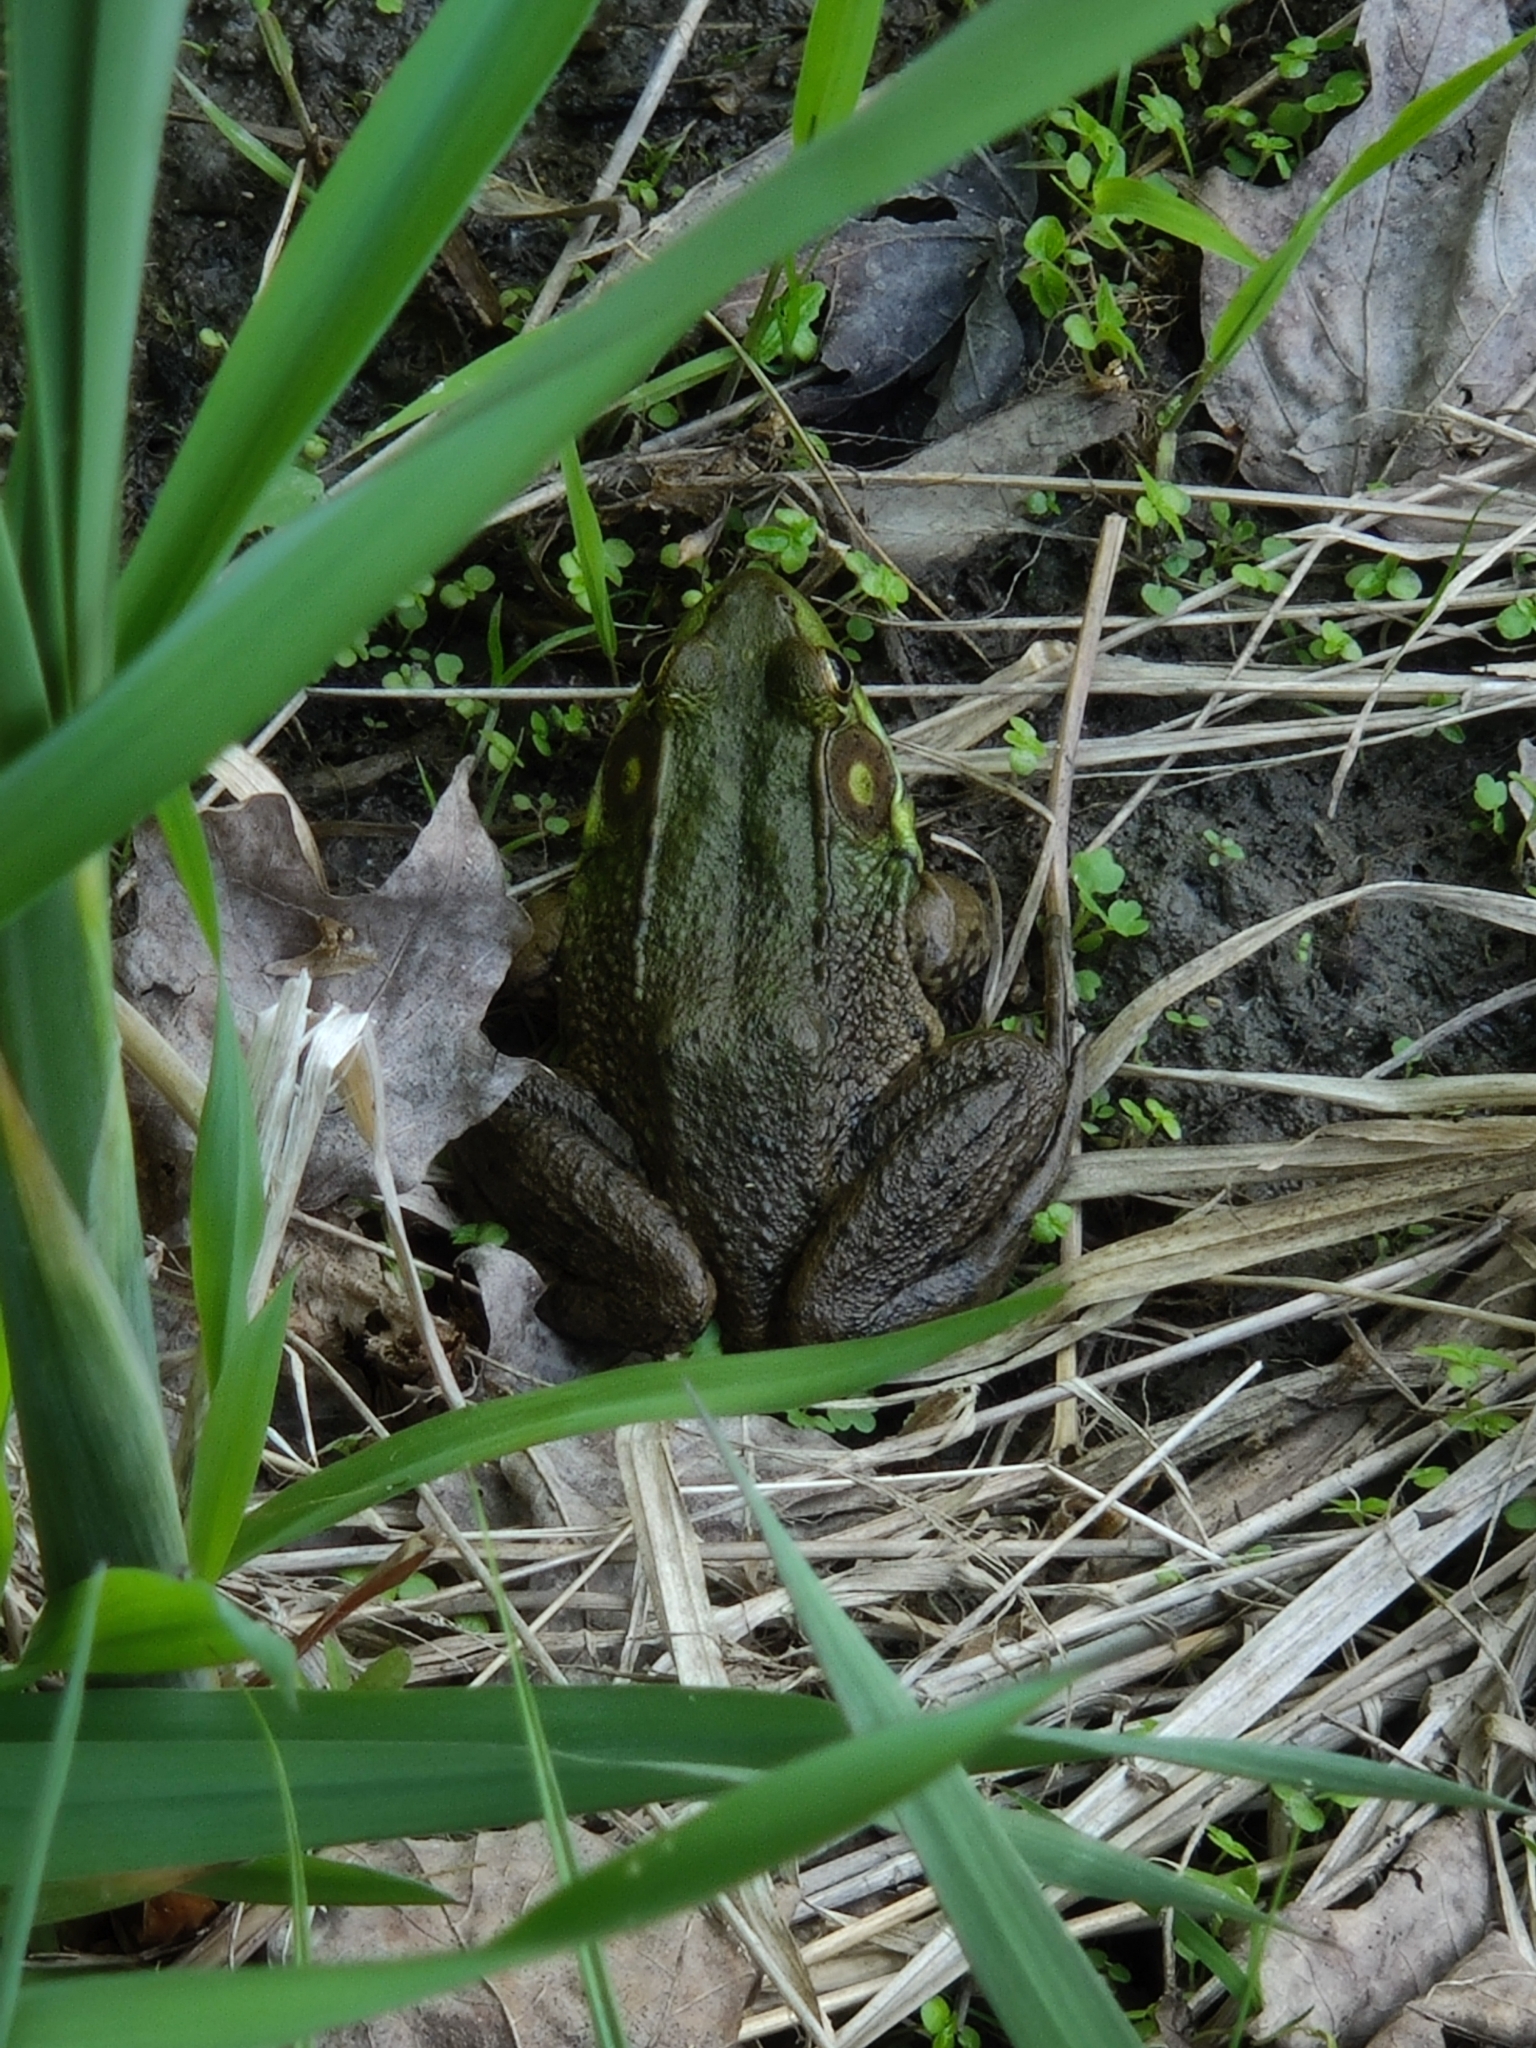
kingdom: Animalia
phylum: Chordata
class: Amphibia
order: Anura
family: Ranidae
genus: Lithobates
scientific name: Lithobates clamitans
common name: Green frog
